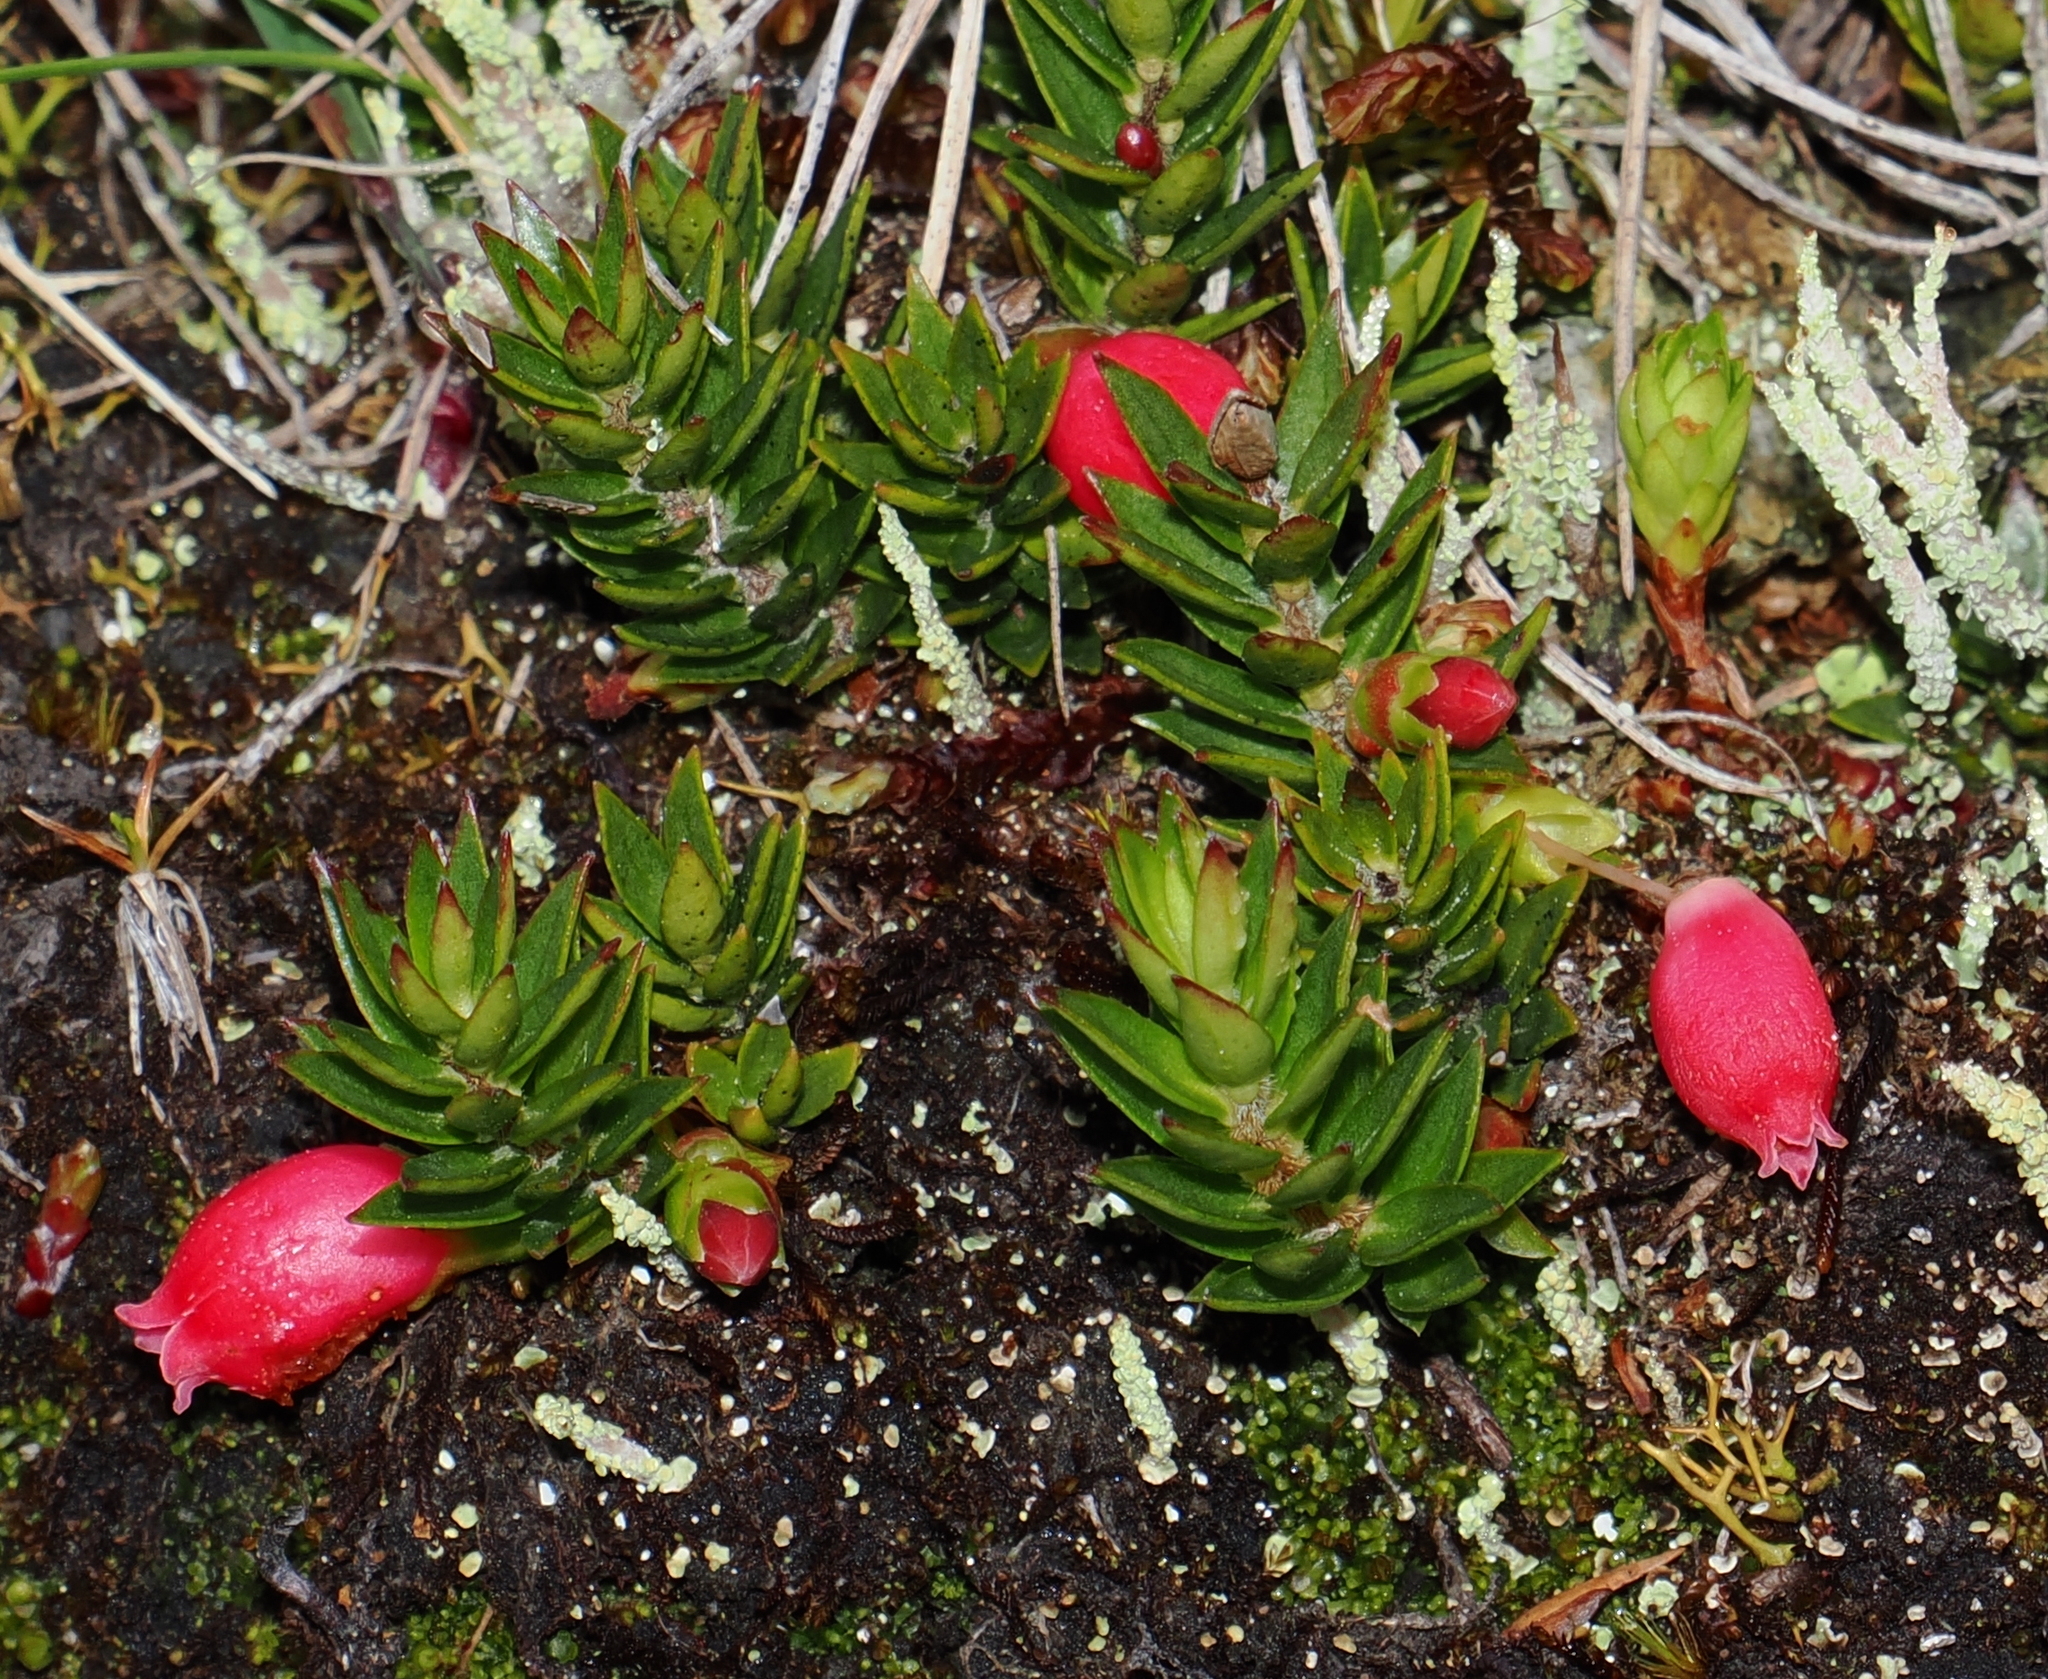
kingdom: Plantae
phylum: Tracheophyta
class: Magnoliopsida
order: Ericales
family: Ericaceae
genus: Disterigma
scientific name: Disterigma empetrifolium
